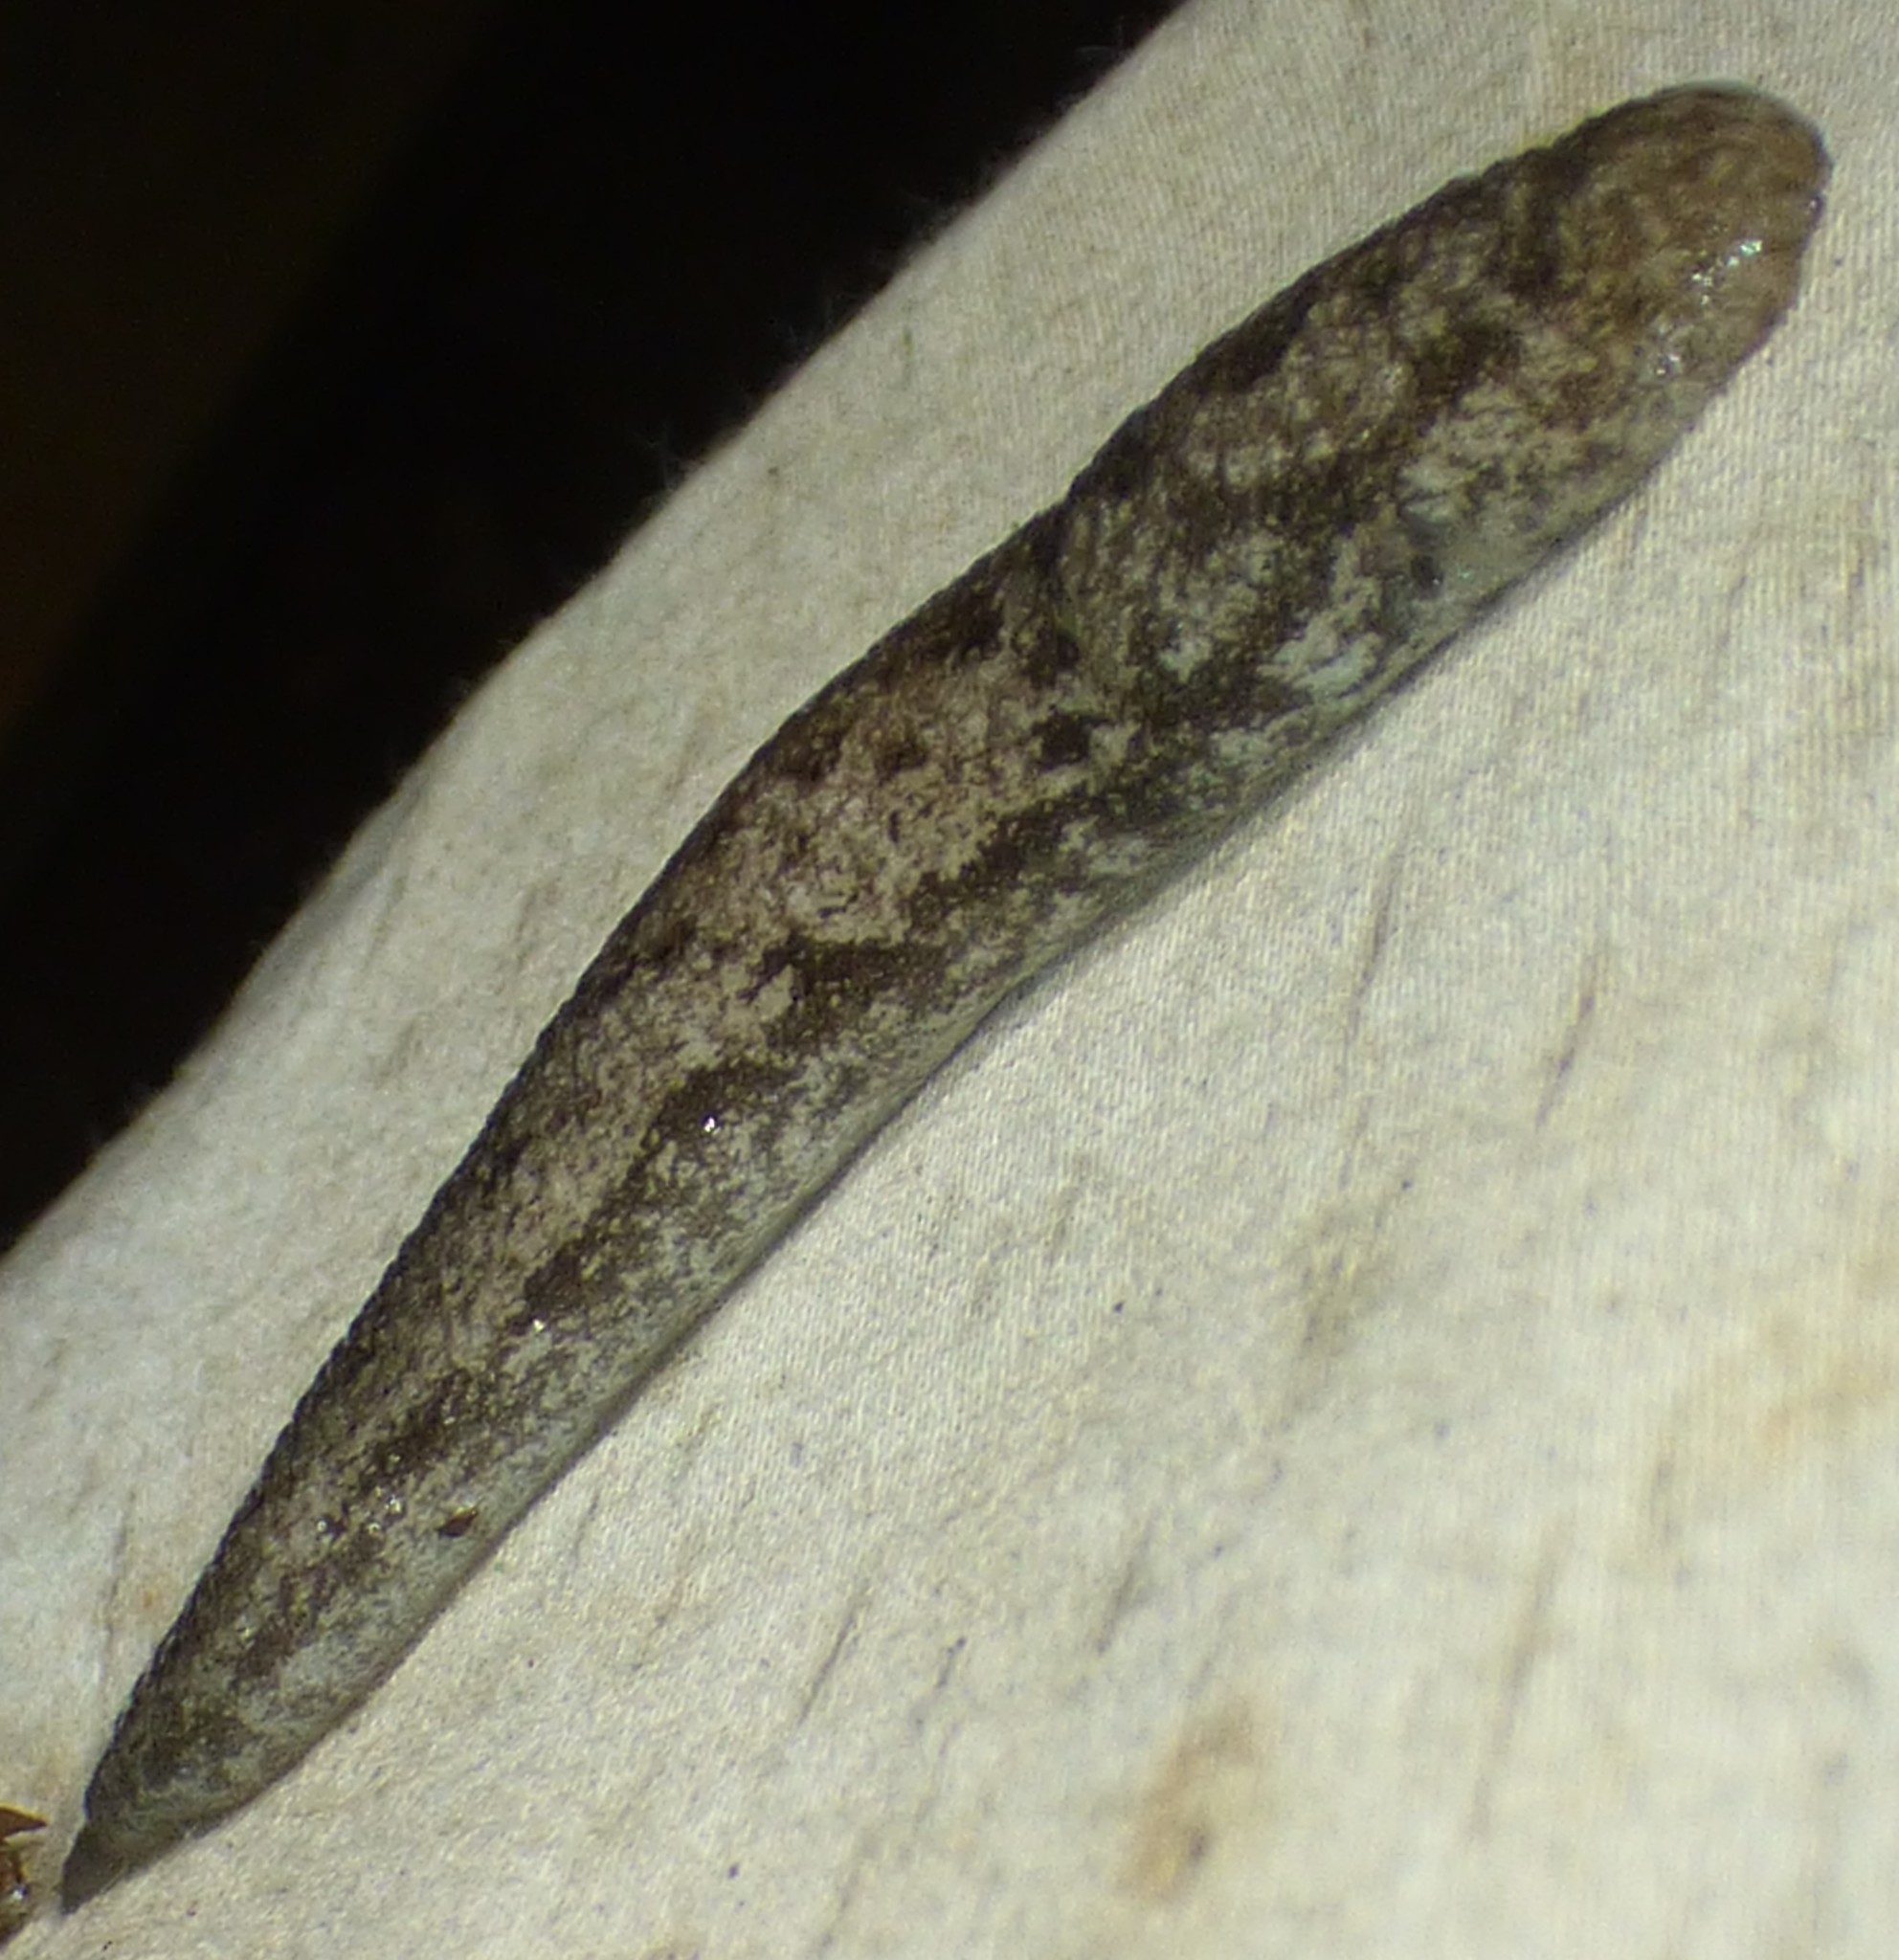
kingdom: Animalia
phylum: Mollusca
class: Gastropoda
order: Stylommatophora
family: Philomycidae
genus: Megapallifera
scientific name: Megapallifera mutabilis
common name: Changeable mantleslug
